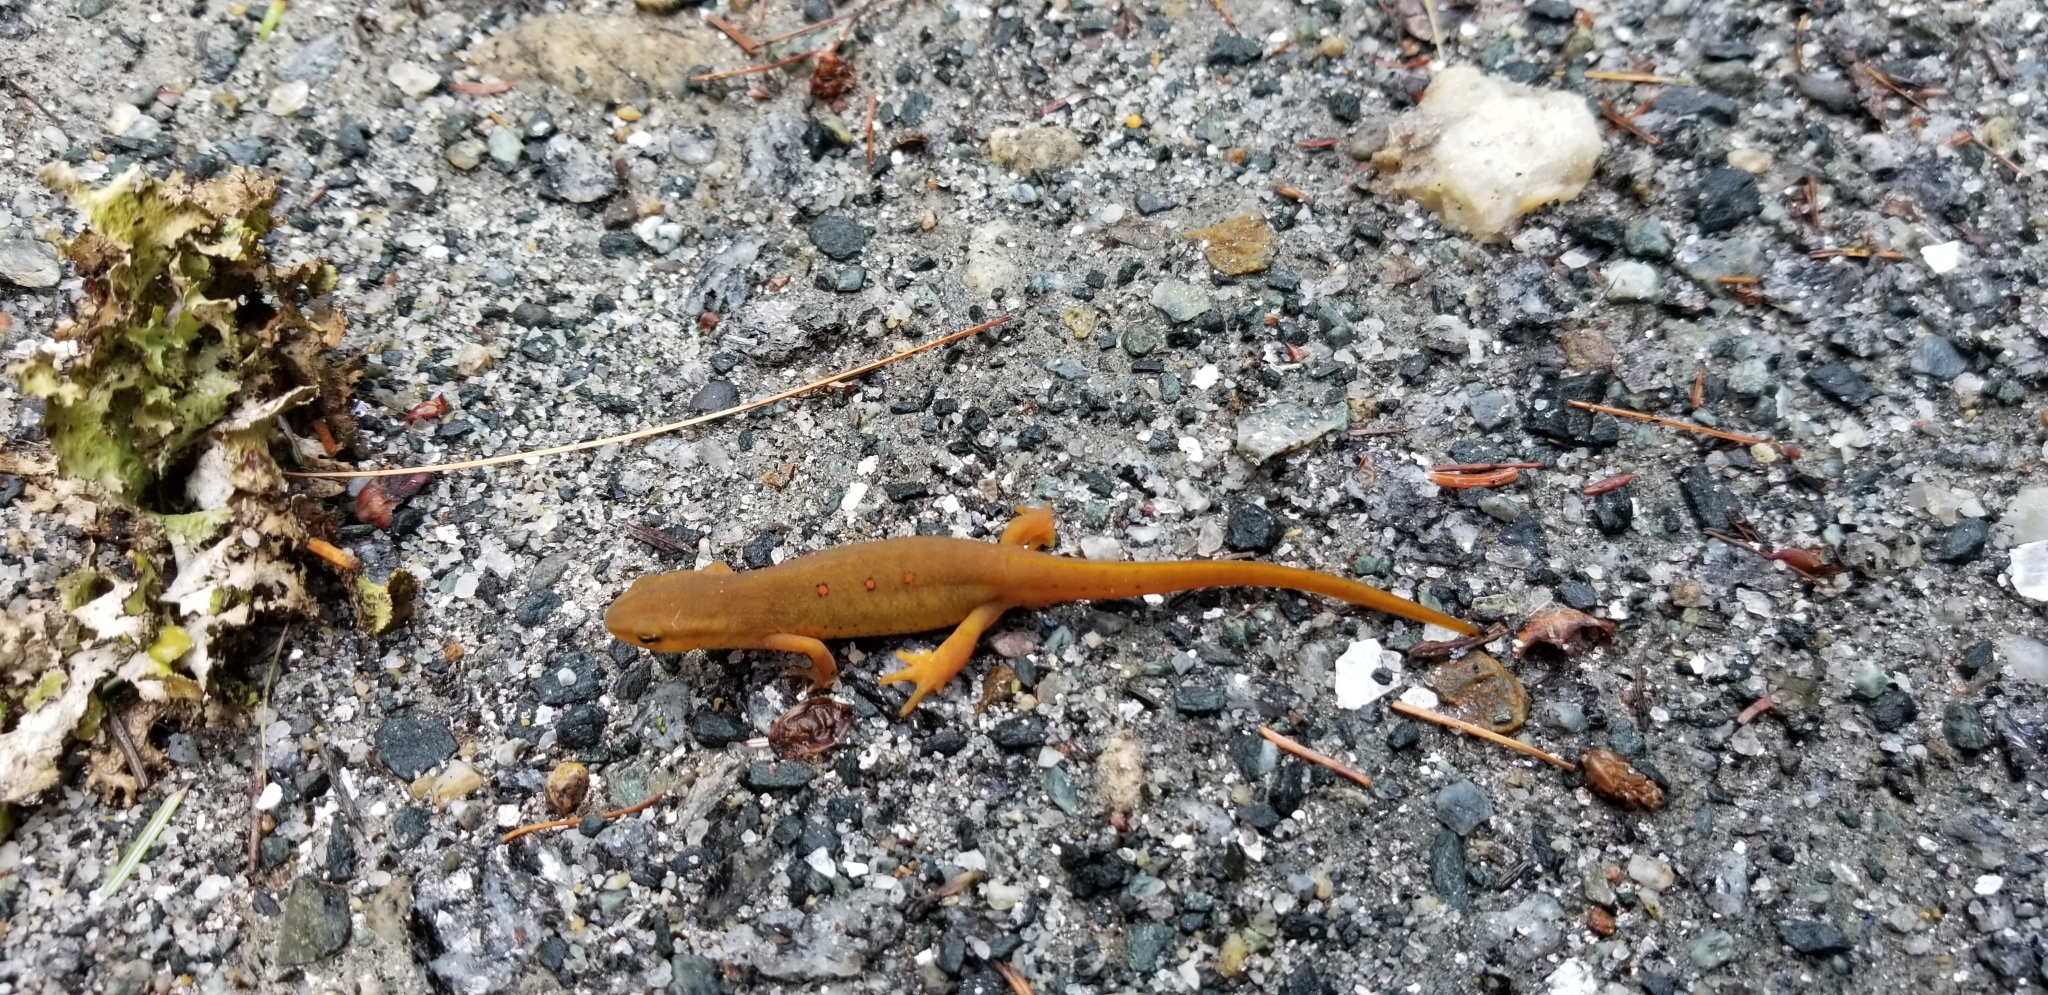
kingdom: Animalia
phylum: Chordata
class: Amphibia
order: Caudata
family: Salamandridae
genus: Notophthalmus
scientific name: Notophthalmus viridescens
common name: Eastern newt
